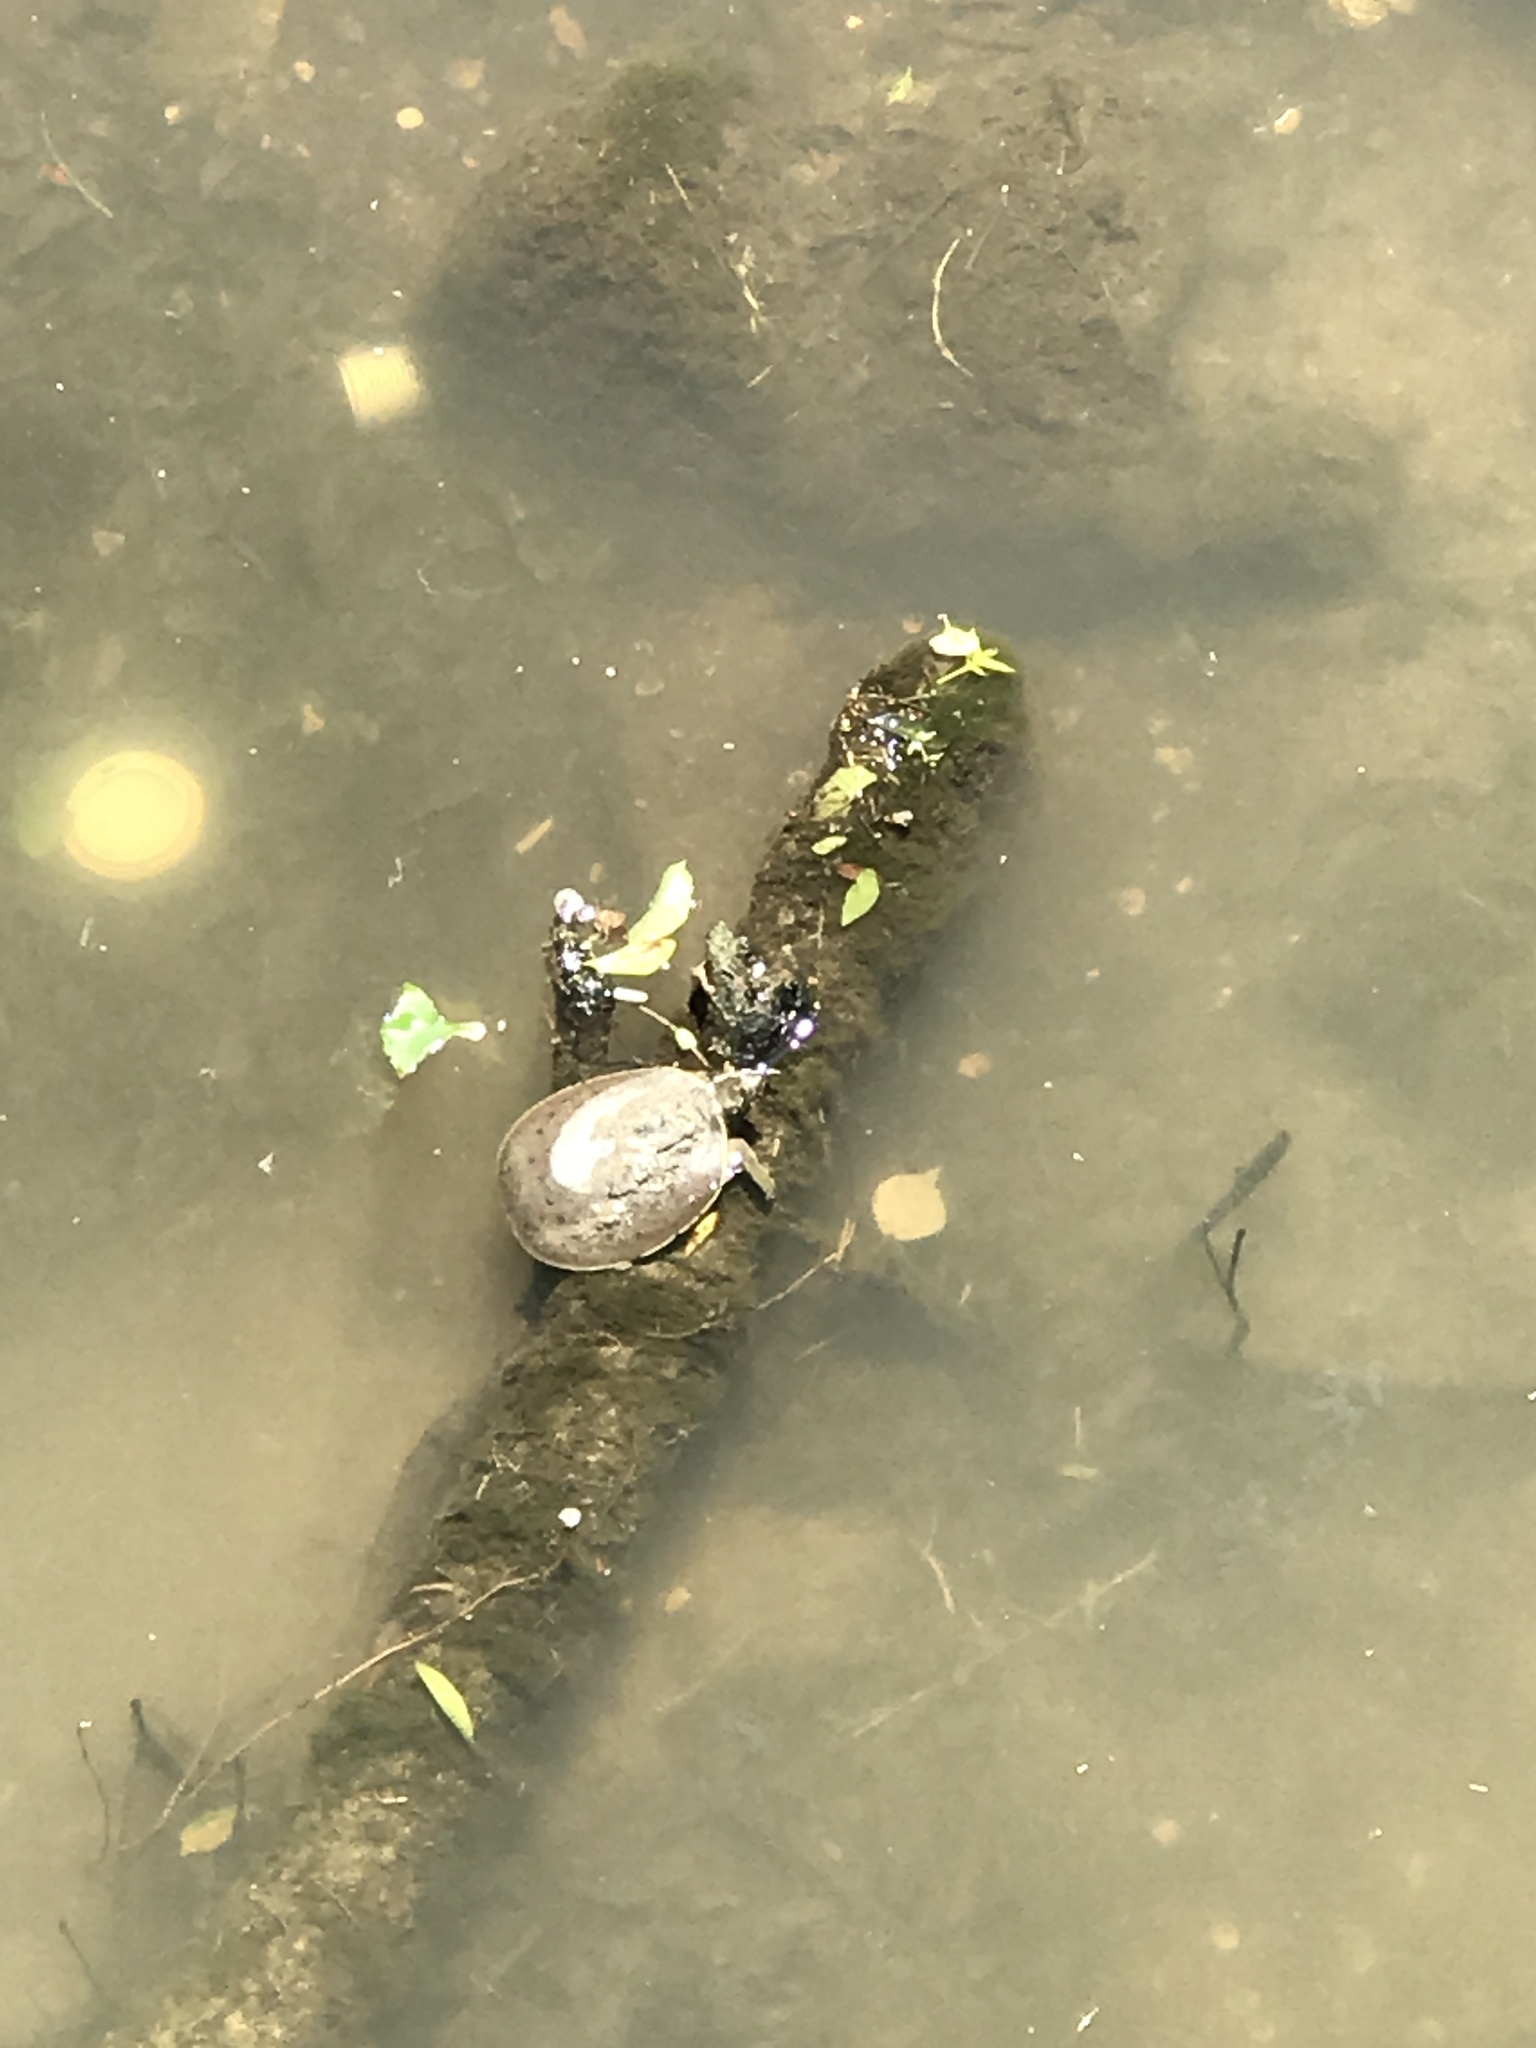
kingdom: Animalia
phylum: Chordata
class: Testudines
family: Trionychidae
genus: Apalone
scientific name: Apalone spinifera
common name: Spiny softshell turtle
